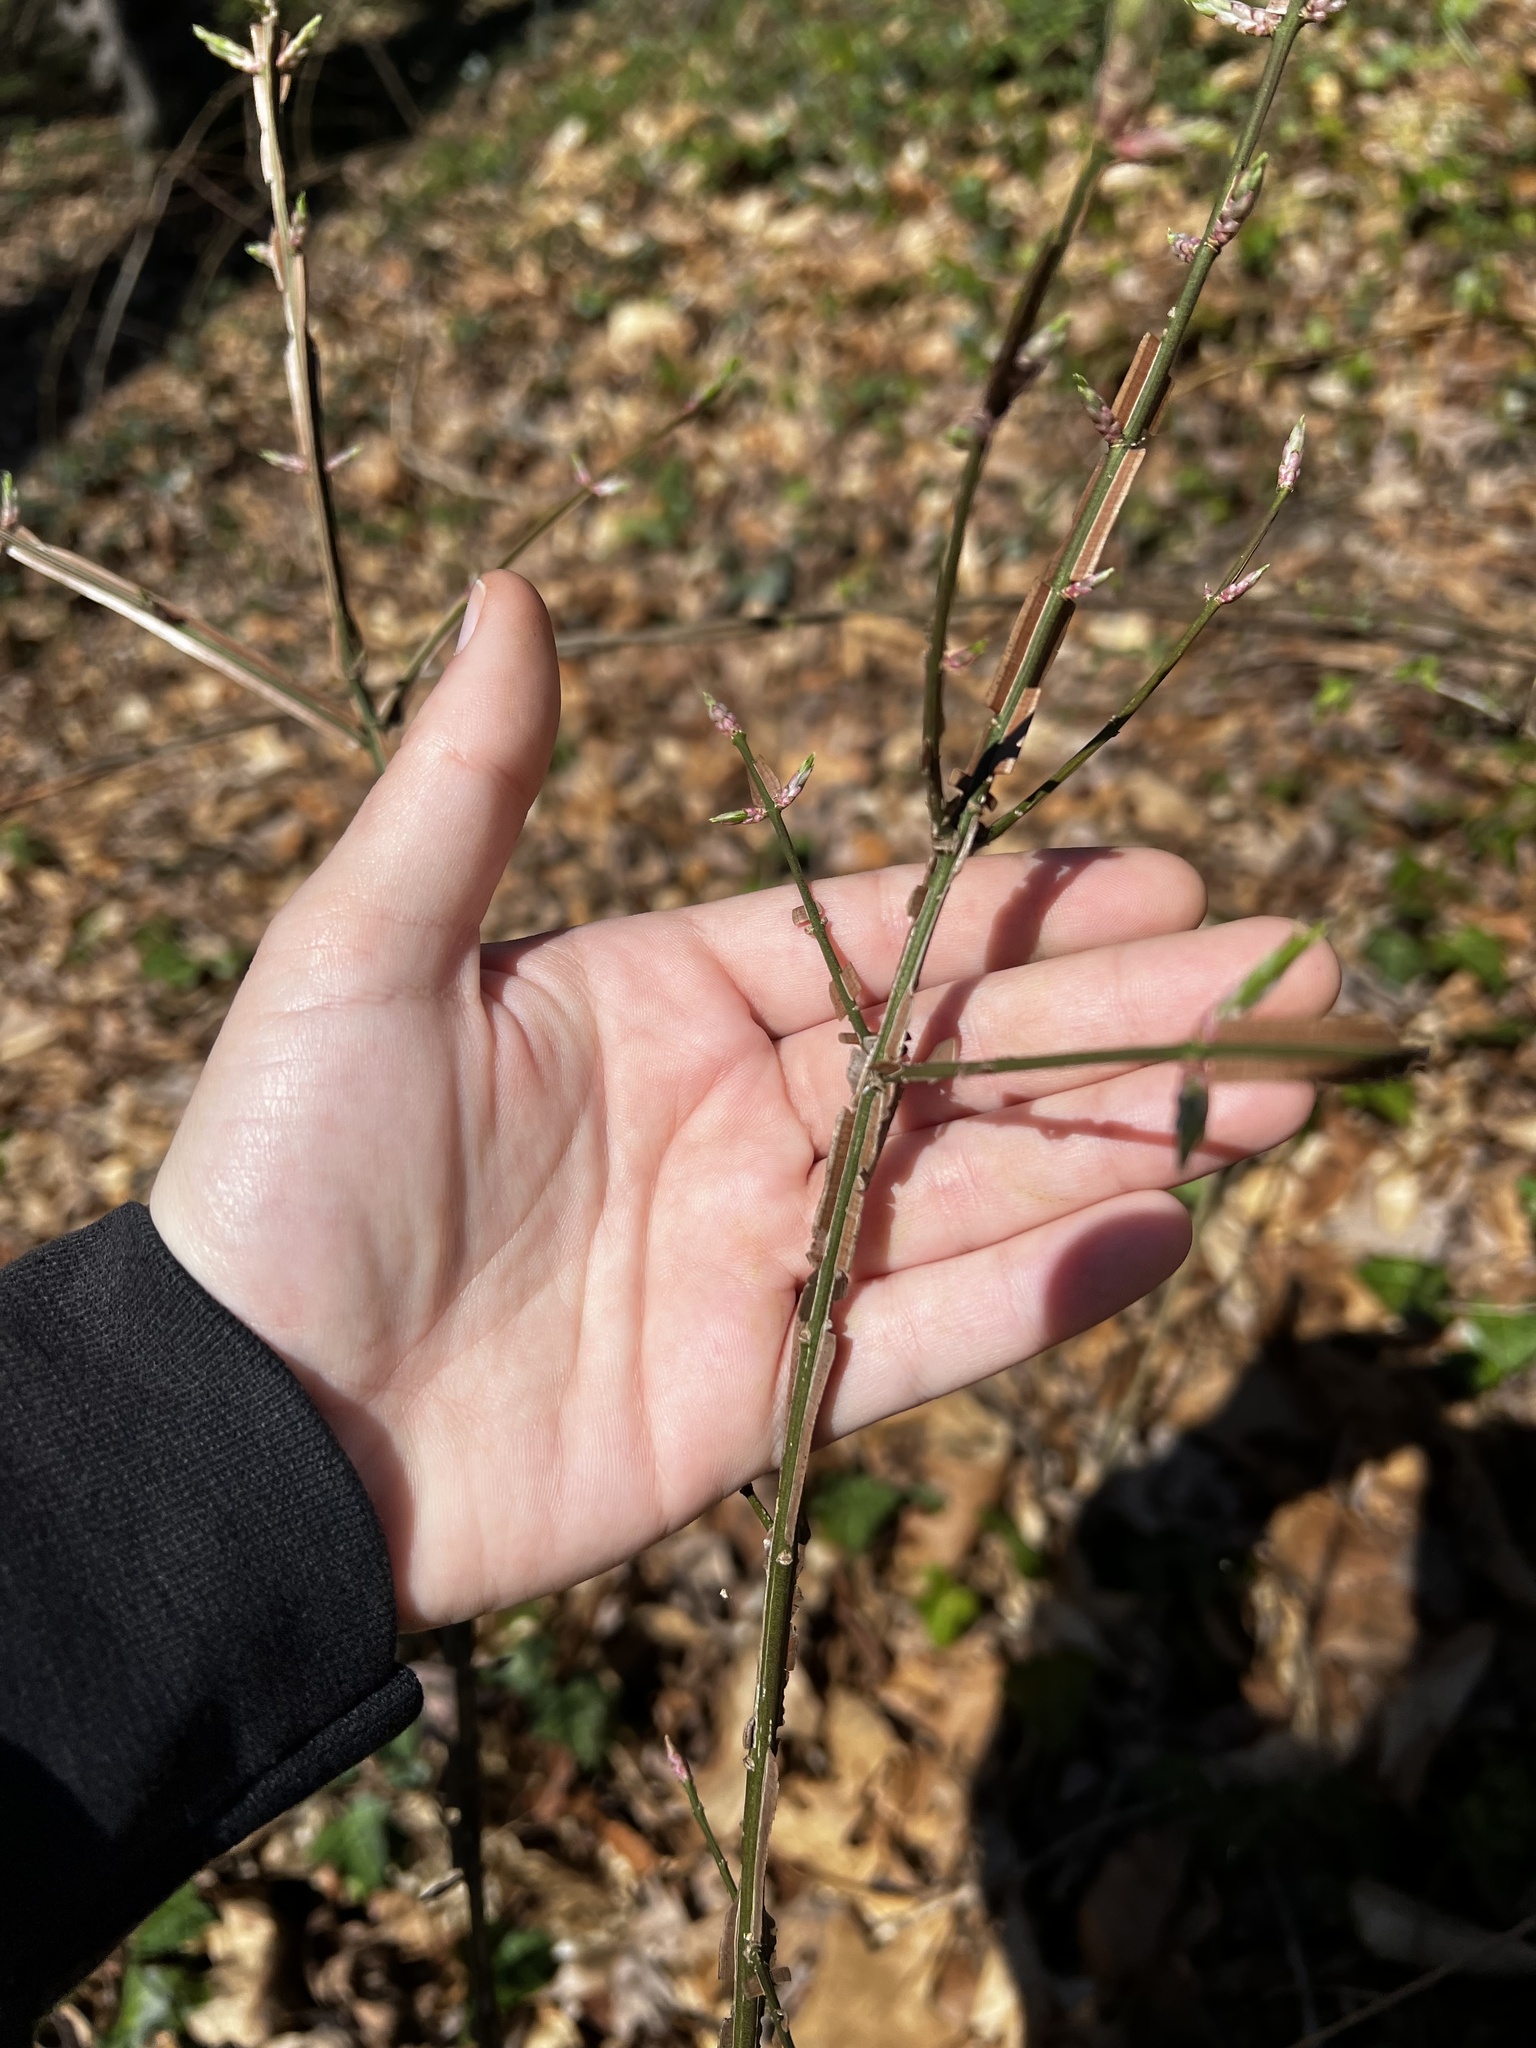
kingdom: Plantae
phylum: Tracheophyta
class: Magnoliopsida
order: Celastrales
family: Celastraceae
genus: Euonymus
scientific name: Euonymus alatus
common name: Winged euonymus
